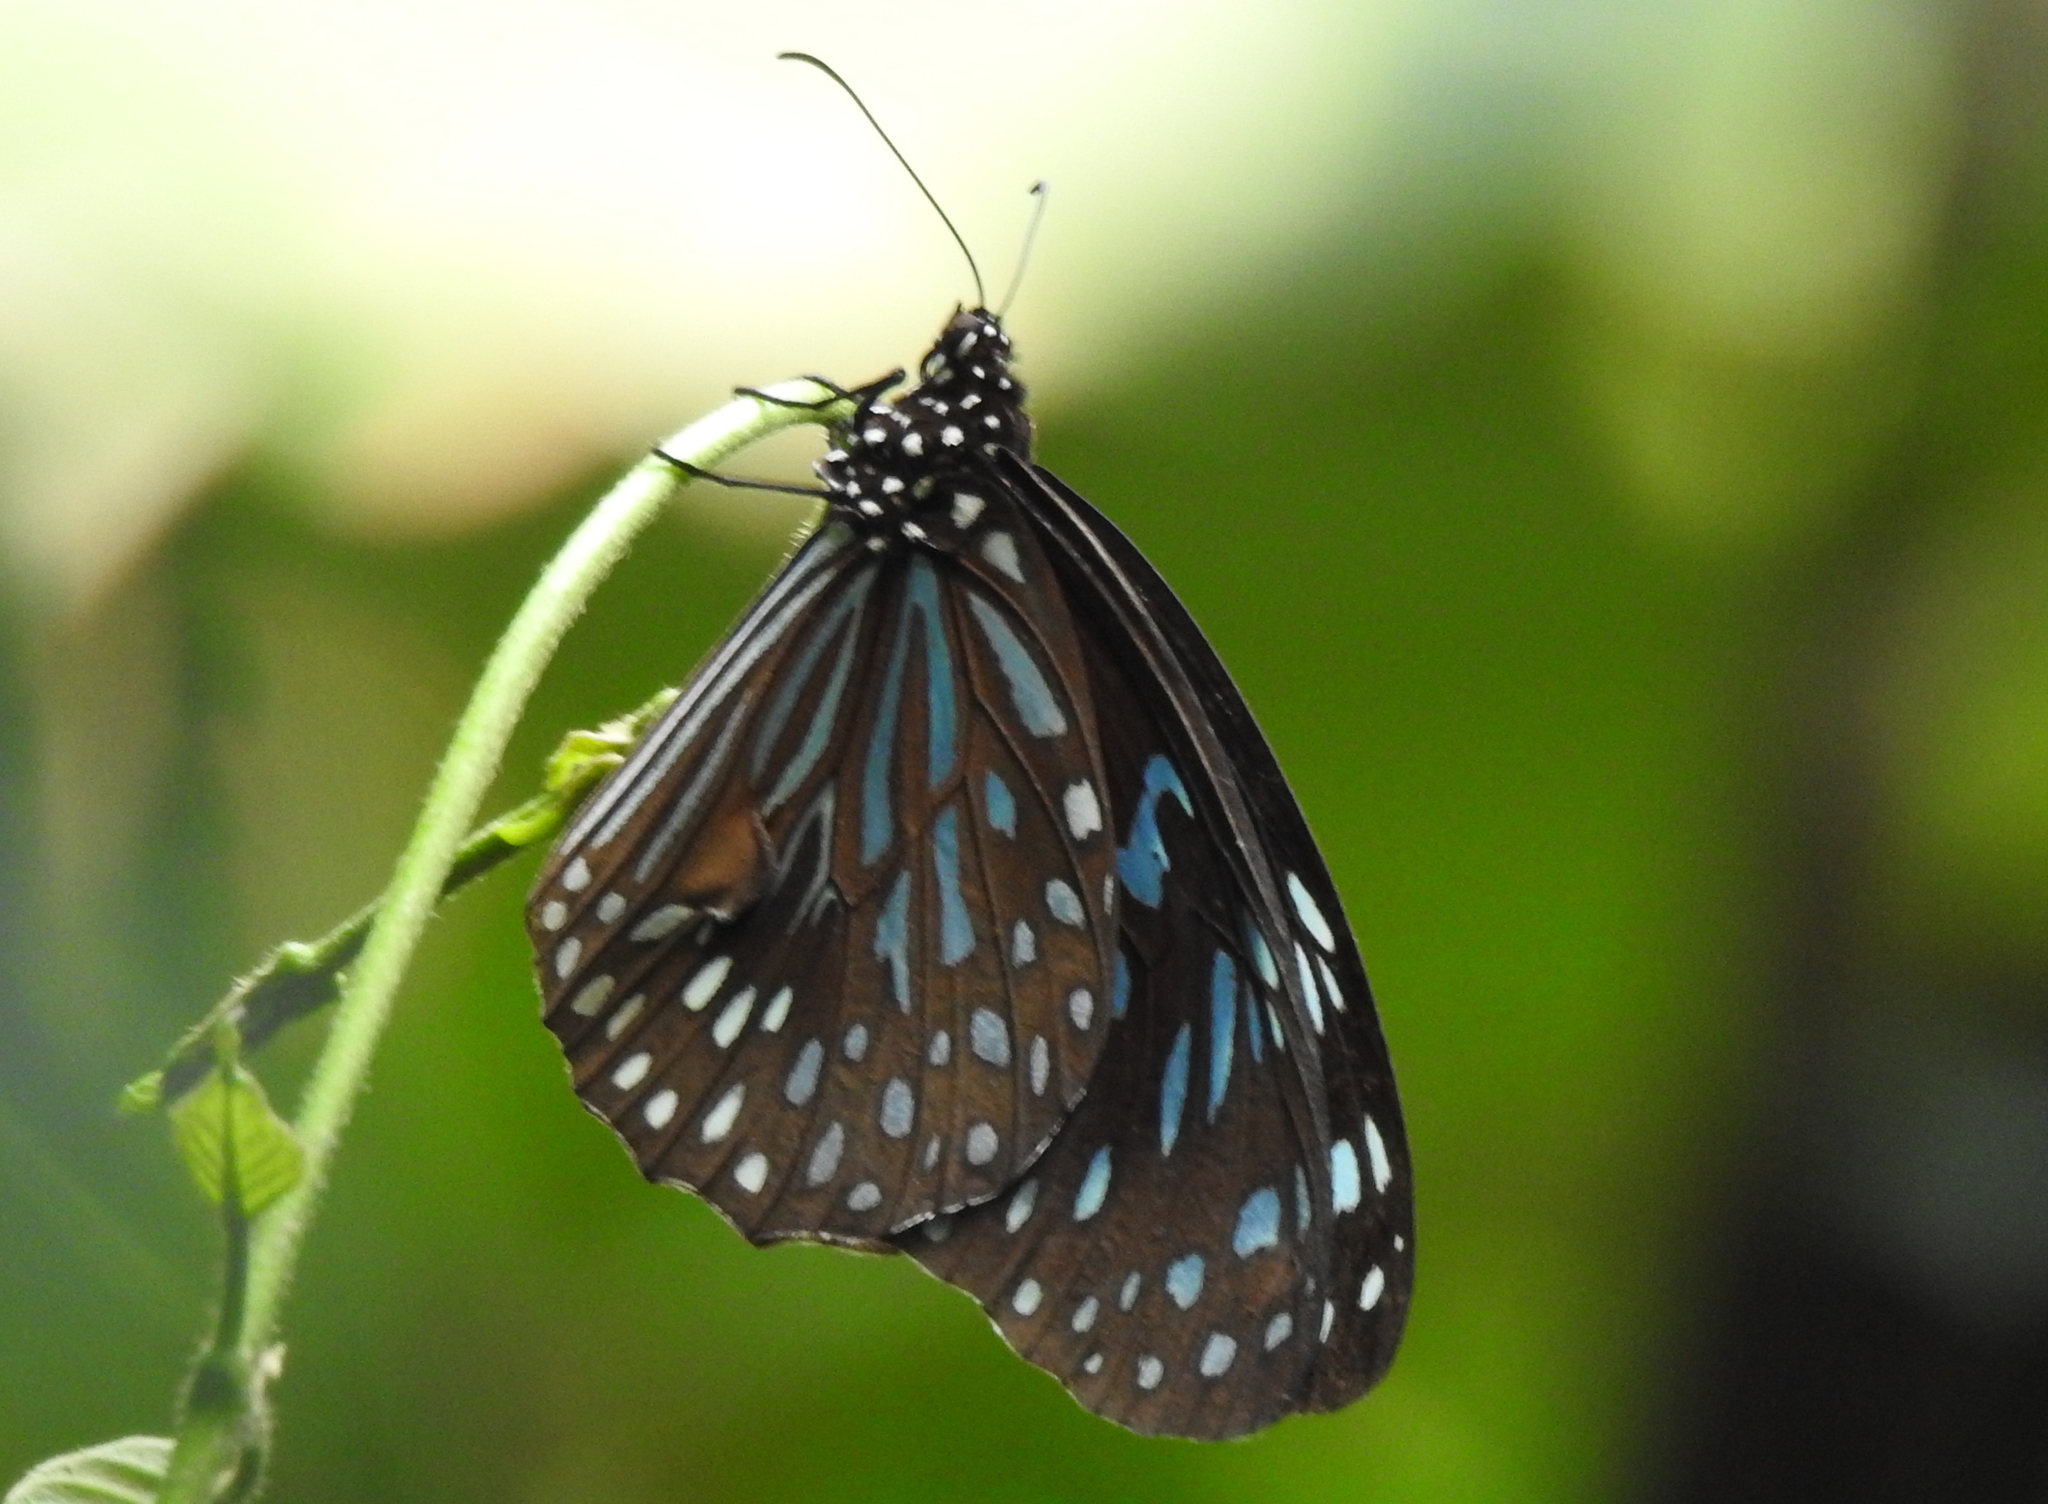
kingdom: Animalia
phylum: Arthropoda
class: Insecta
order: Lepidoptera
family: Nymphalidae
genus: Tirumala
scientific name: Tirumala septentrionis
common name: Dark blue tiger butterfly
